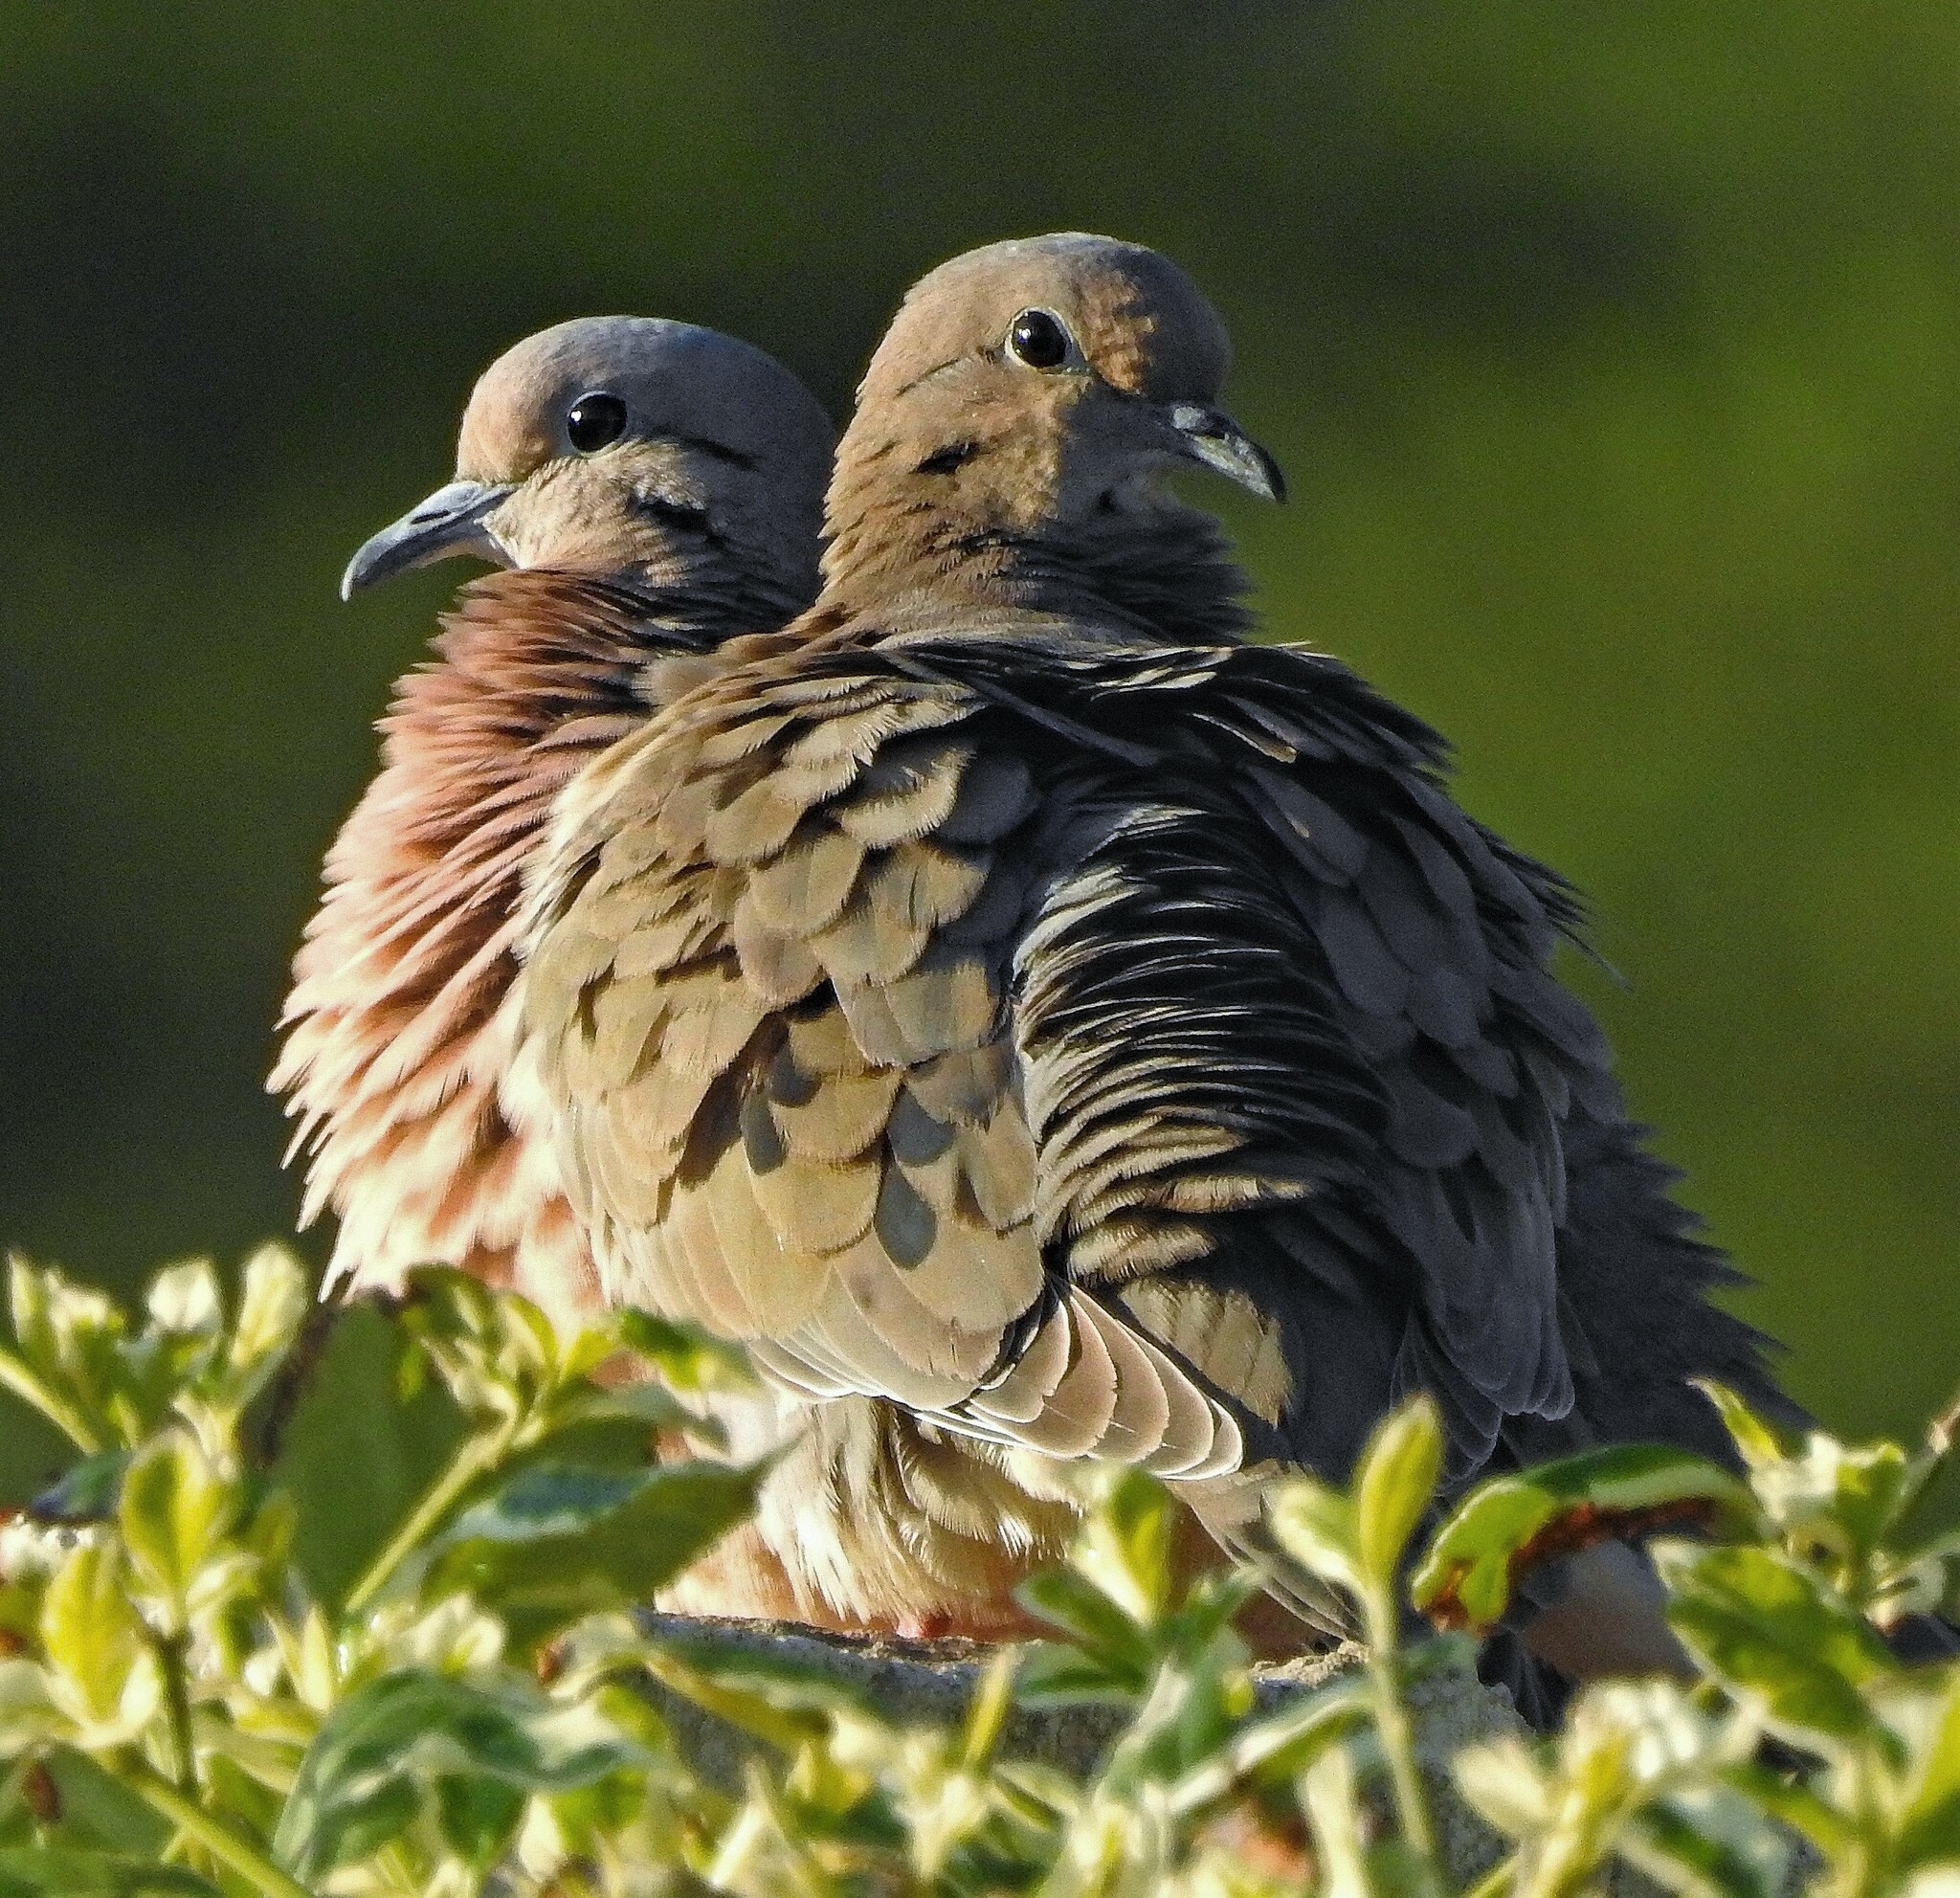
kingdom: Animalia
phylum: Chordata
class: Aves
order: Columbiformes
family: Columbidae
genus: Zenaida
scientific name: Zenaida auriculata
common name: Eared dove
